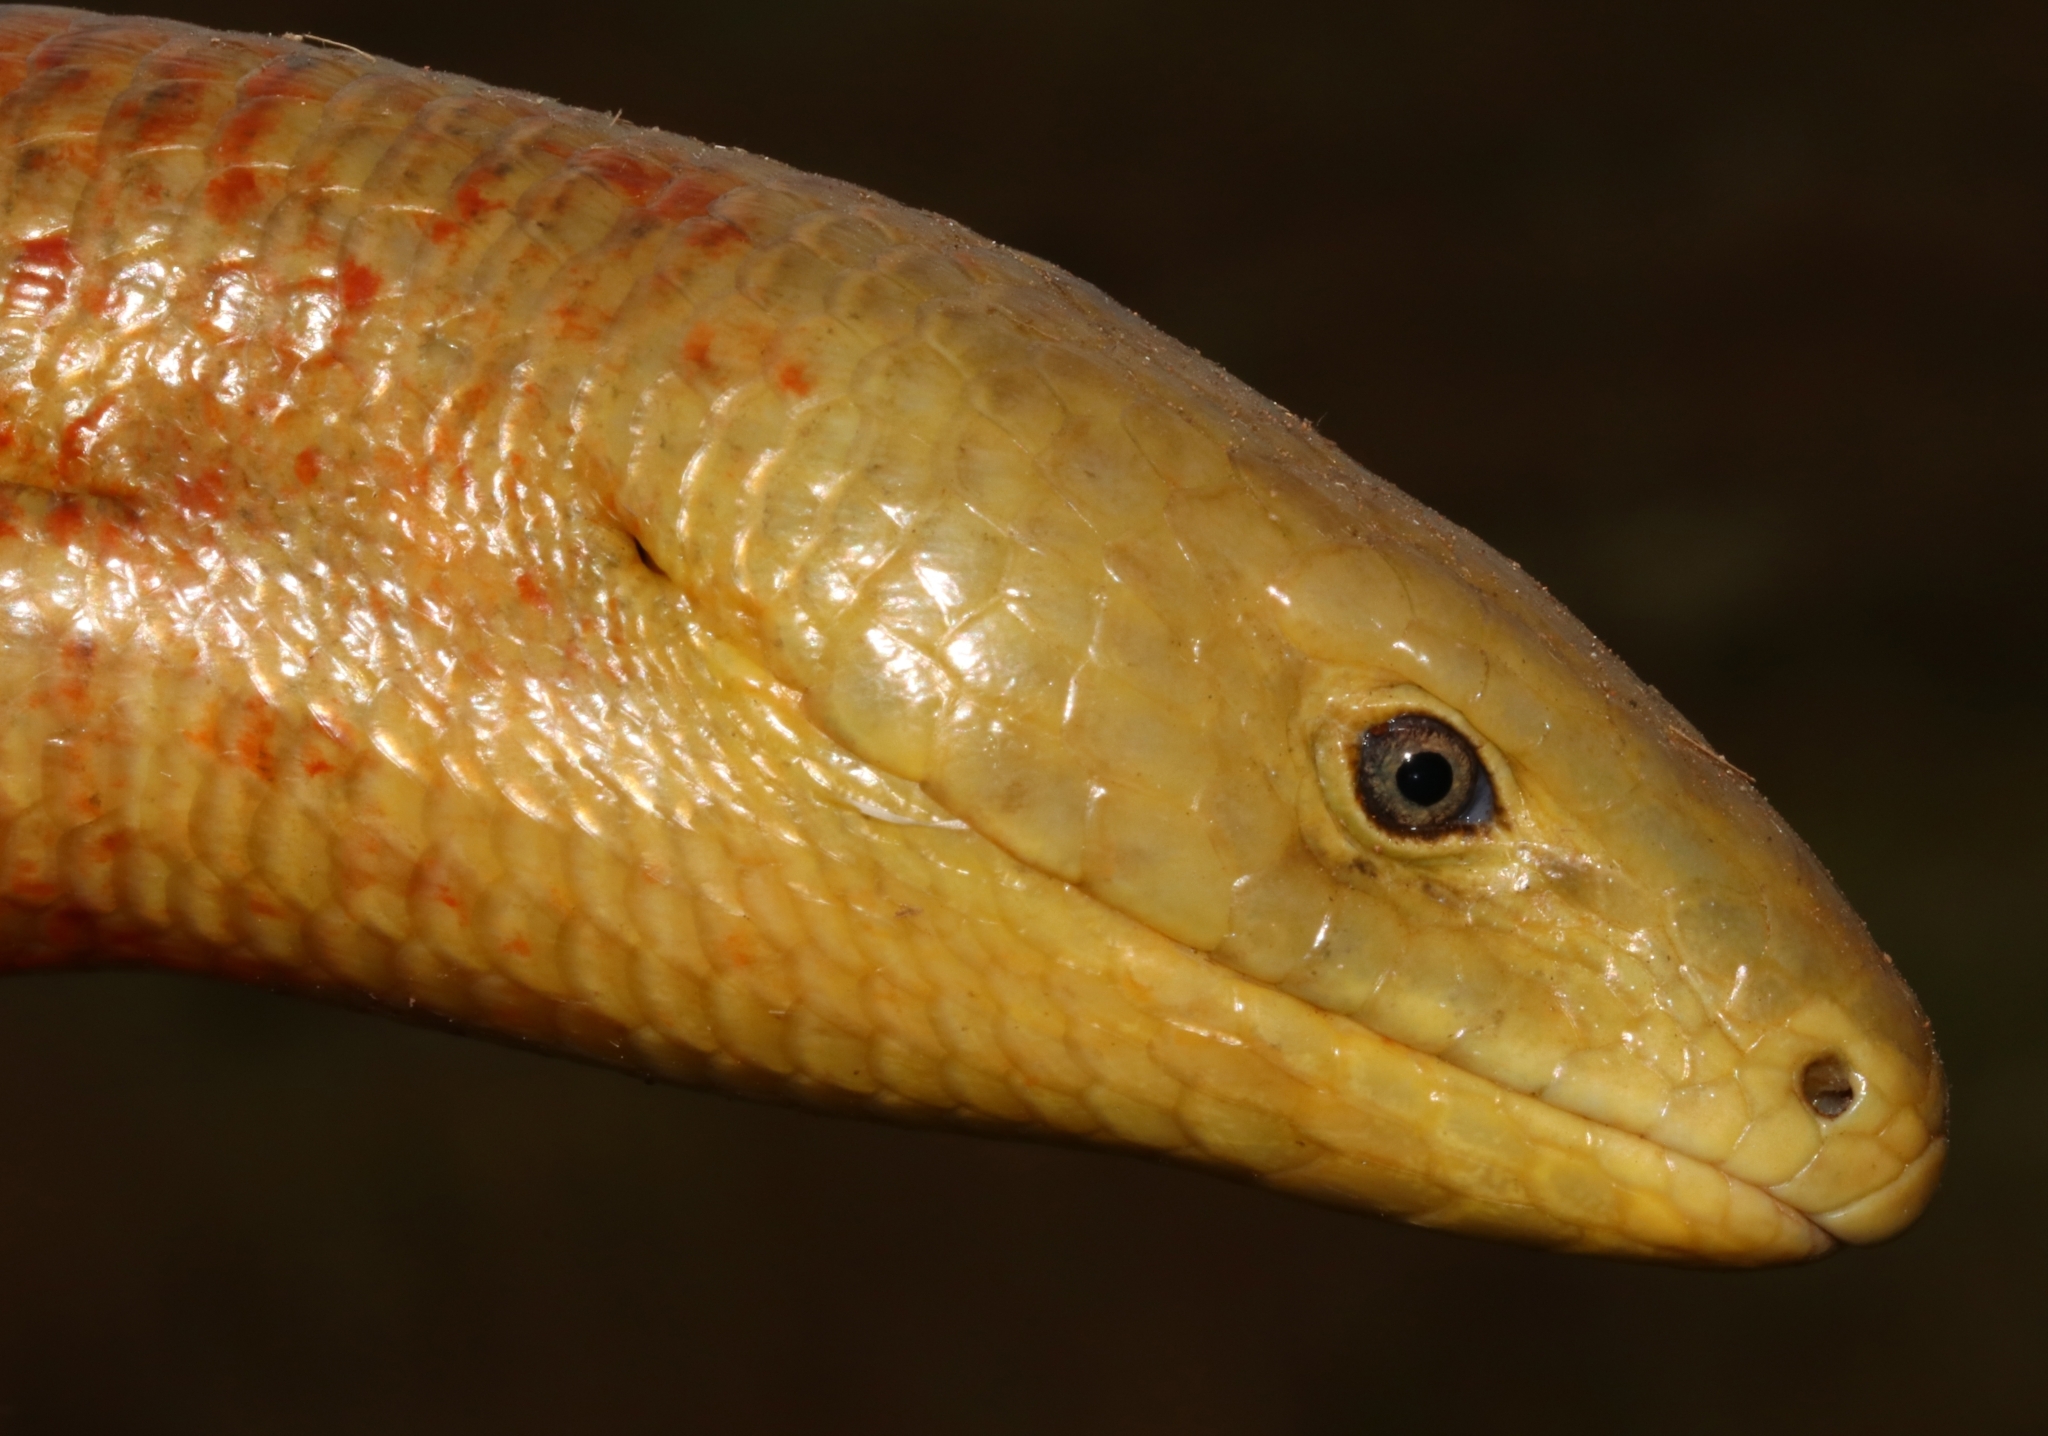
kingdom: Animalia
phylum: Chordata
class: Squamata
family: Anguidae
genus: Pseudopus
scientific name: Pseudopus apodus
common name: European glass lizard
